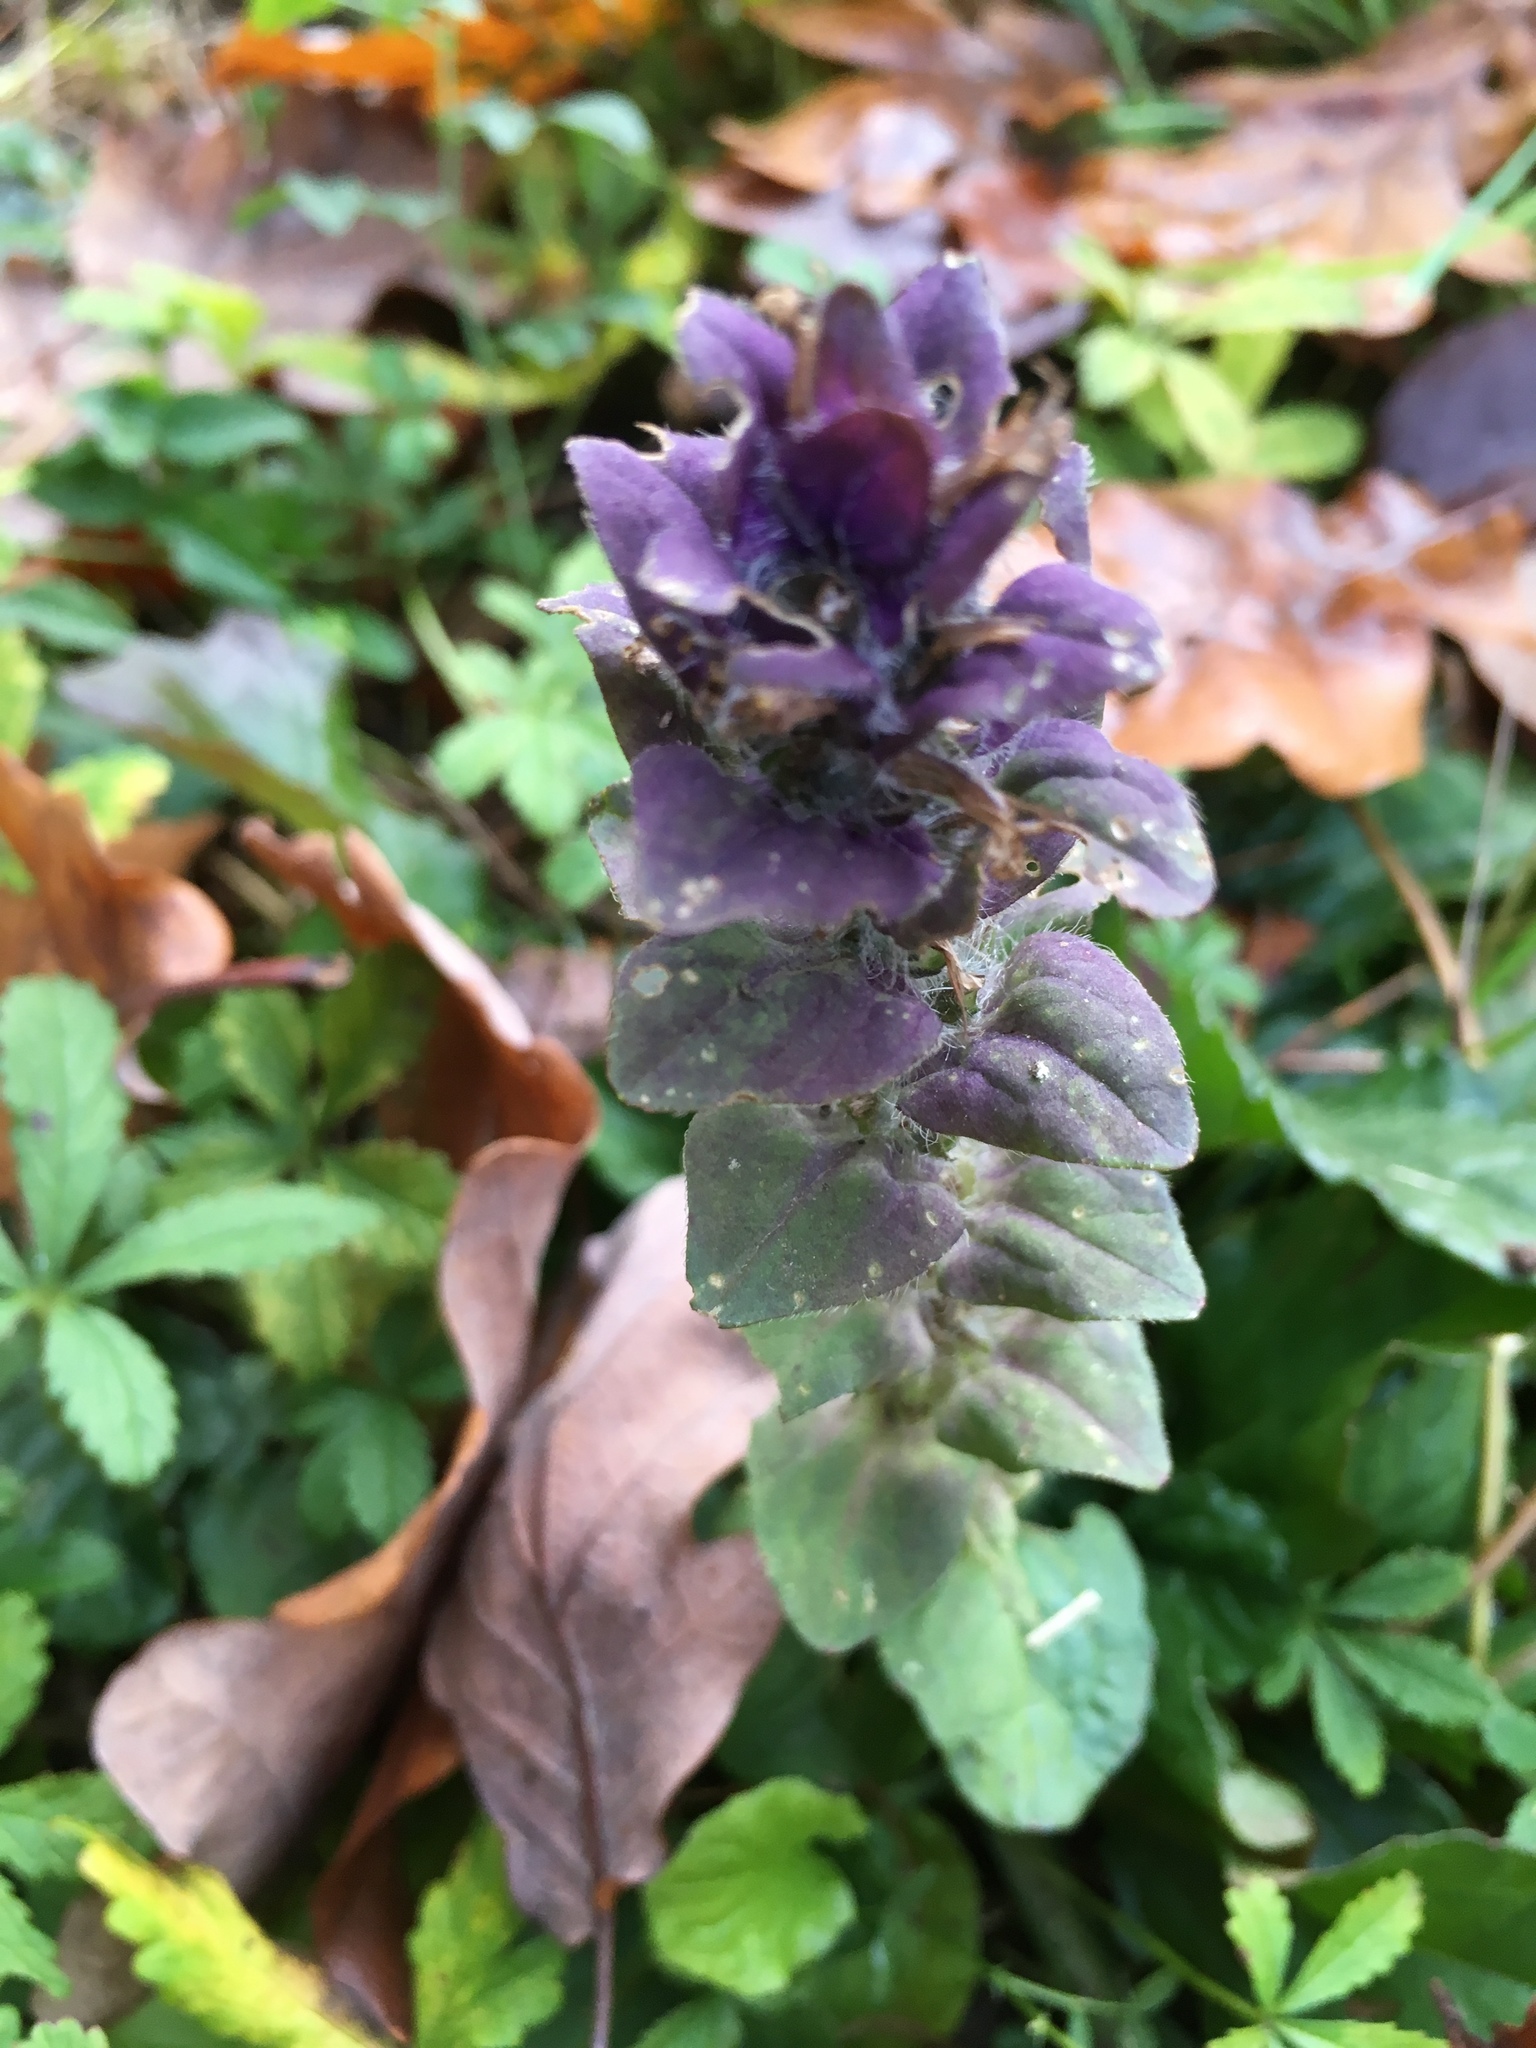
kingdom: Plantae
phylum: Tracheophyta
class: Magnoliopsida
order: Lamiales
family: Lamiaceae
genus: Ajuga
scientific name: Ajuga reptans
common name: Bugle
